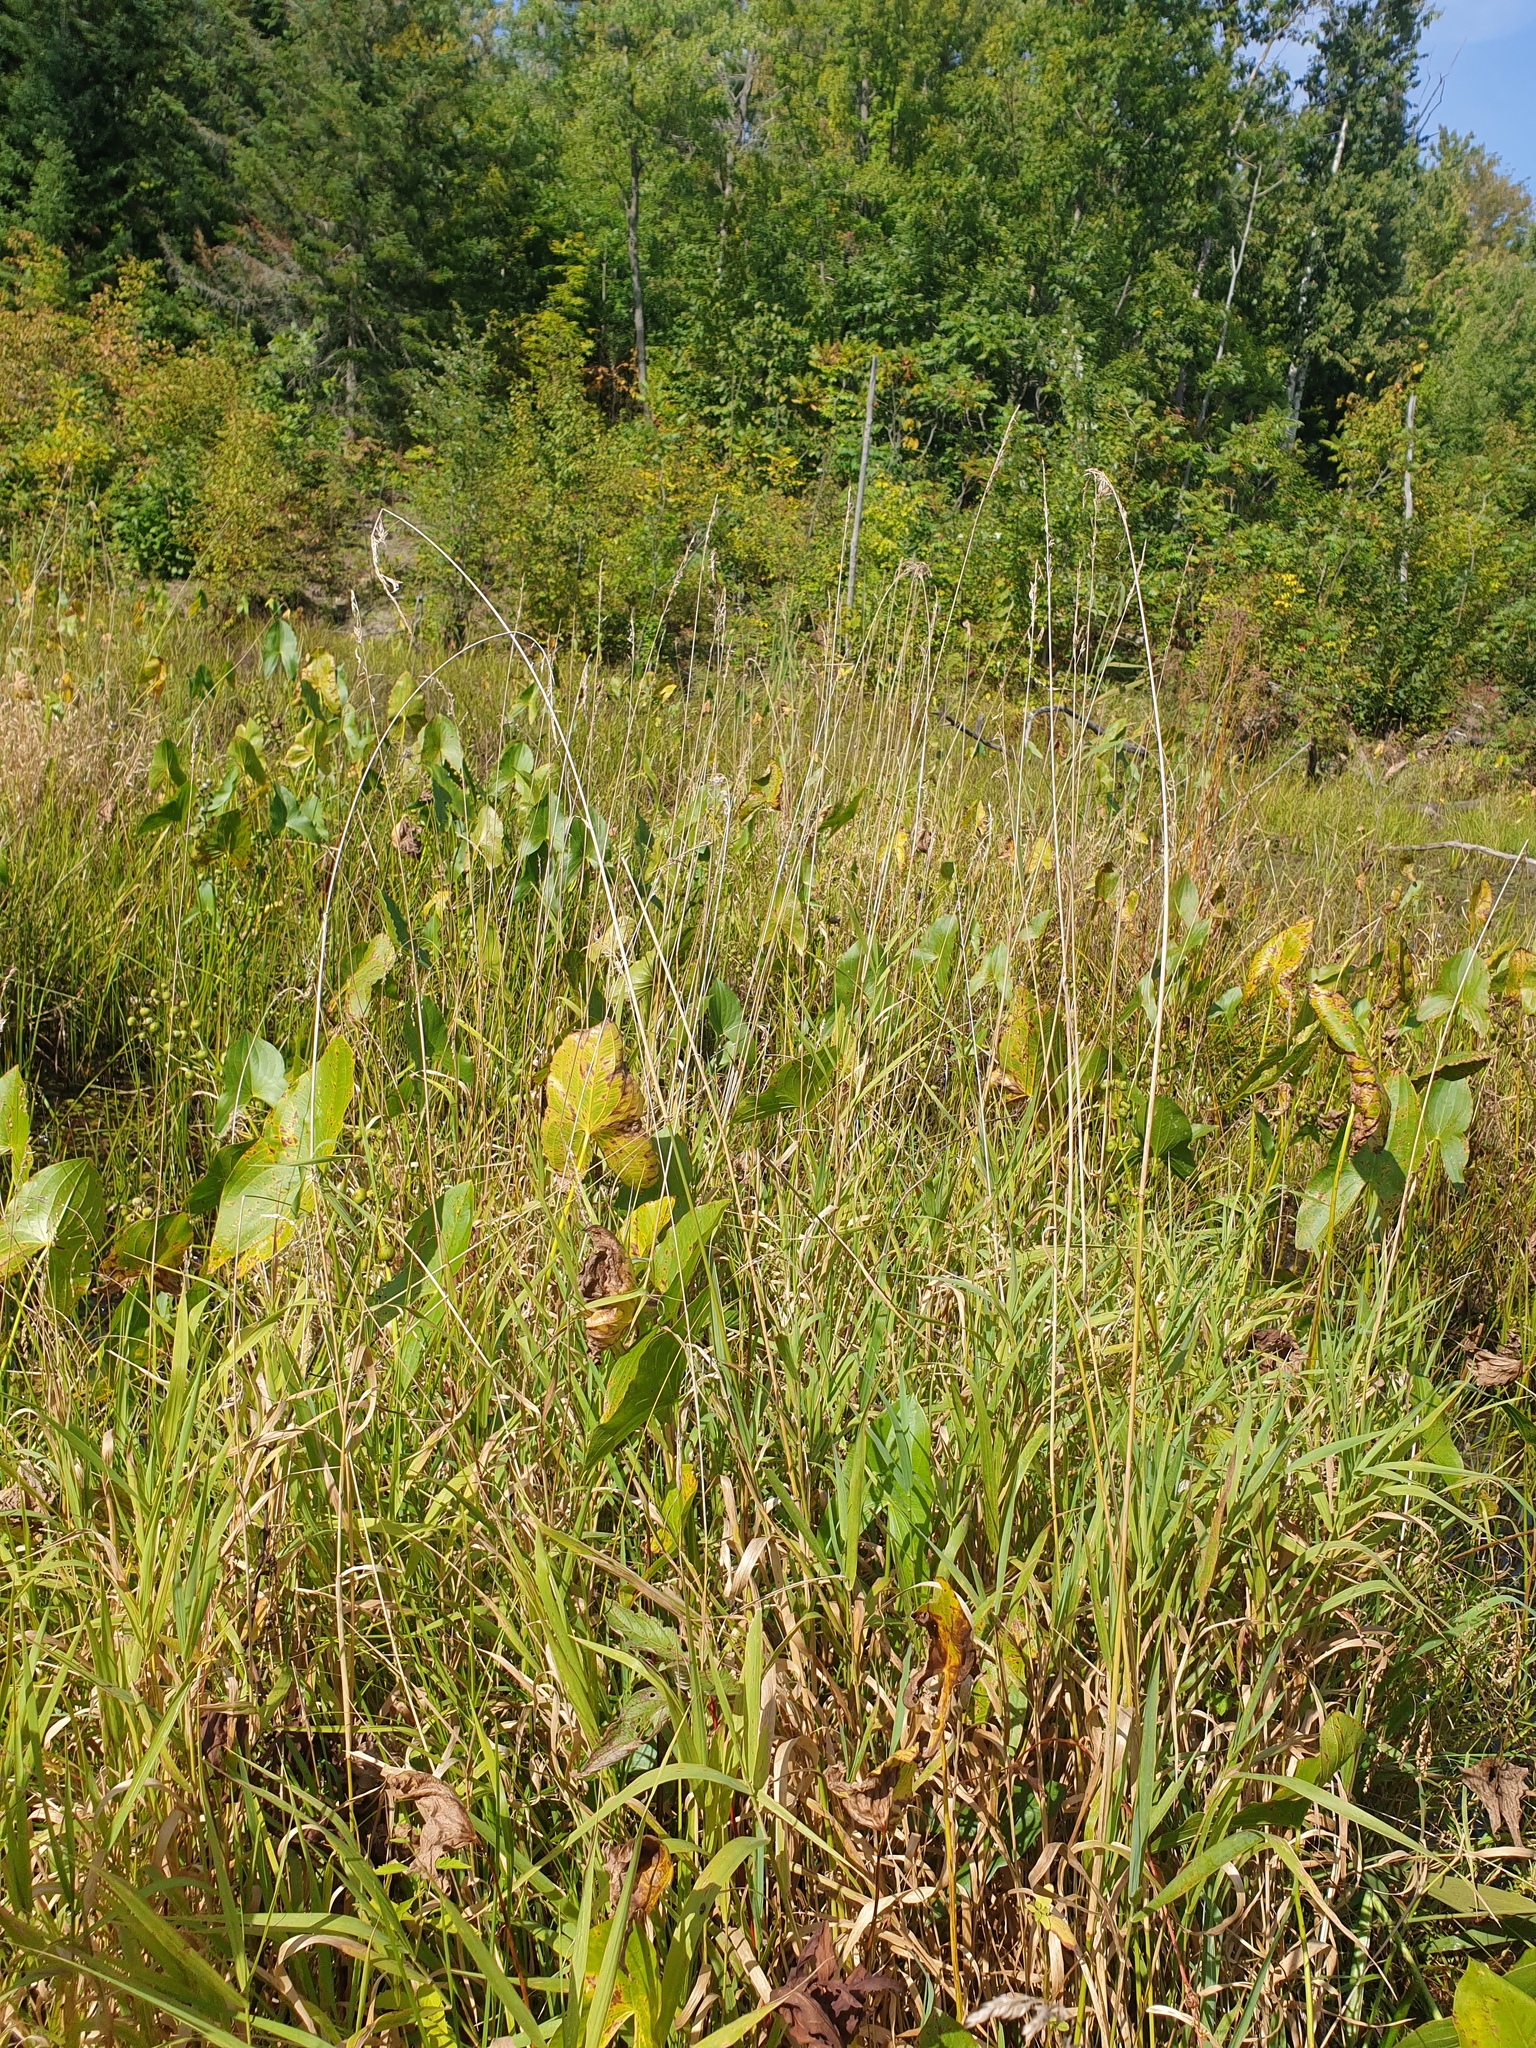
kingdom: Plantae
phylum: Tracheophyta
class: Liliopsida
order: Poales
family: Poaceae
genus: Phalaris
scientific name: Phalaris arundinacea
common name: Reed canary-grass
